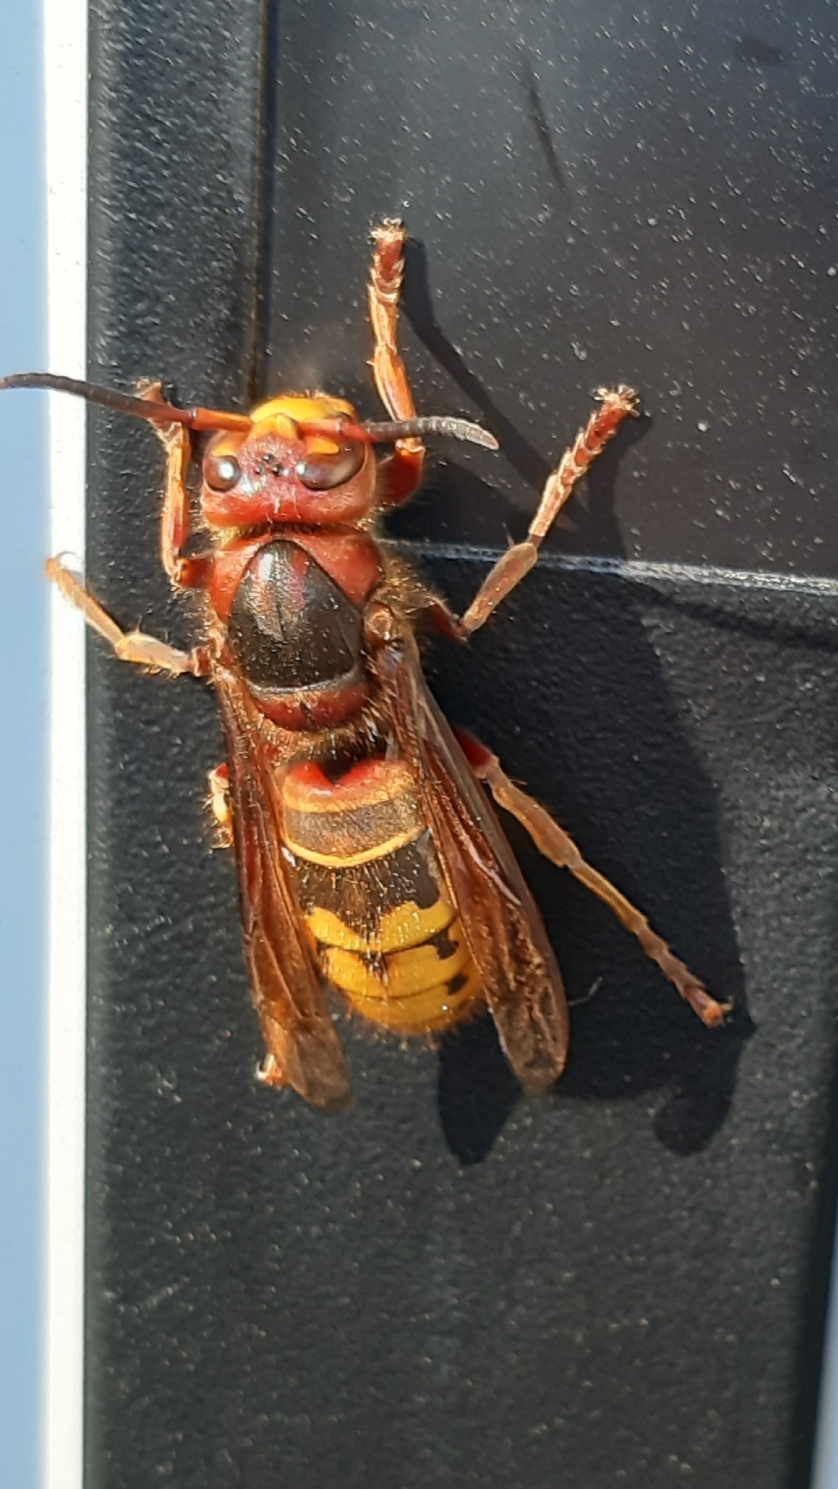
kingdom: Animalia
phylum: Arthropoda
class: Insecta
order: Hymenoptera
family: Vespidae
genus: Vespa
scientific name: Vespa crabro
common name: Hornet
